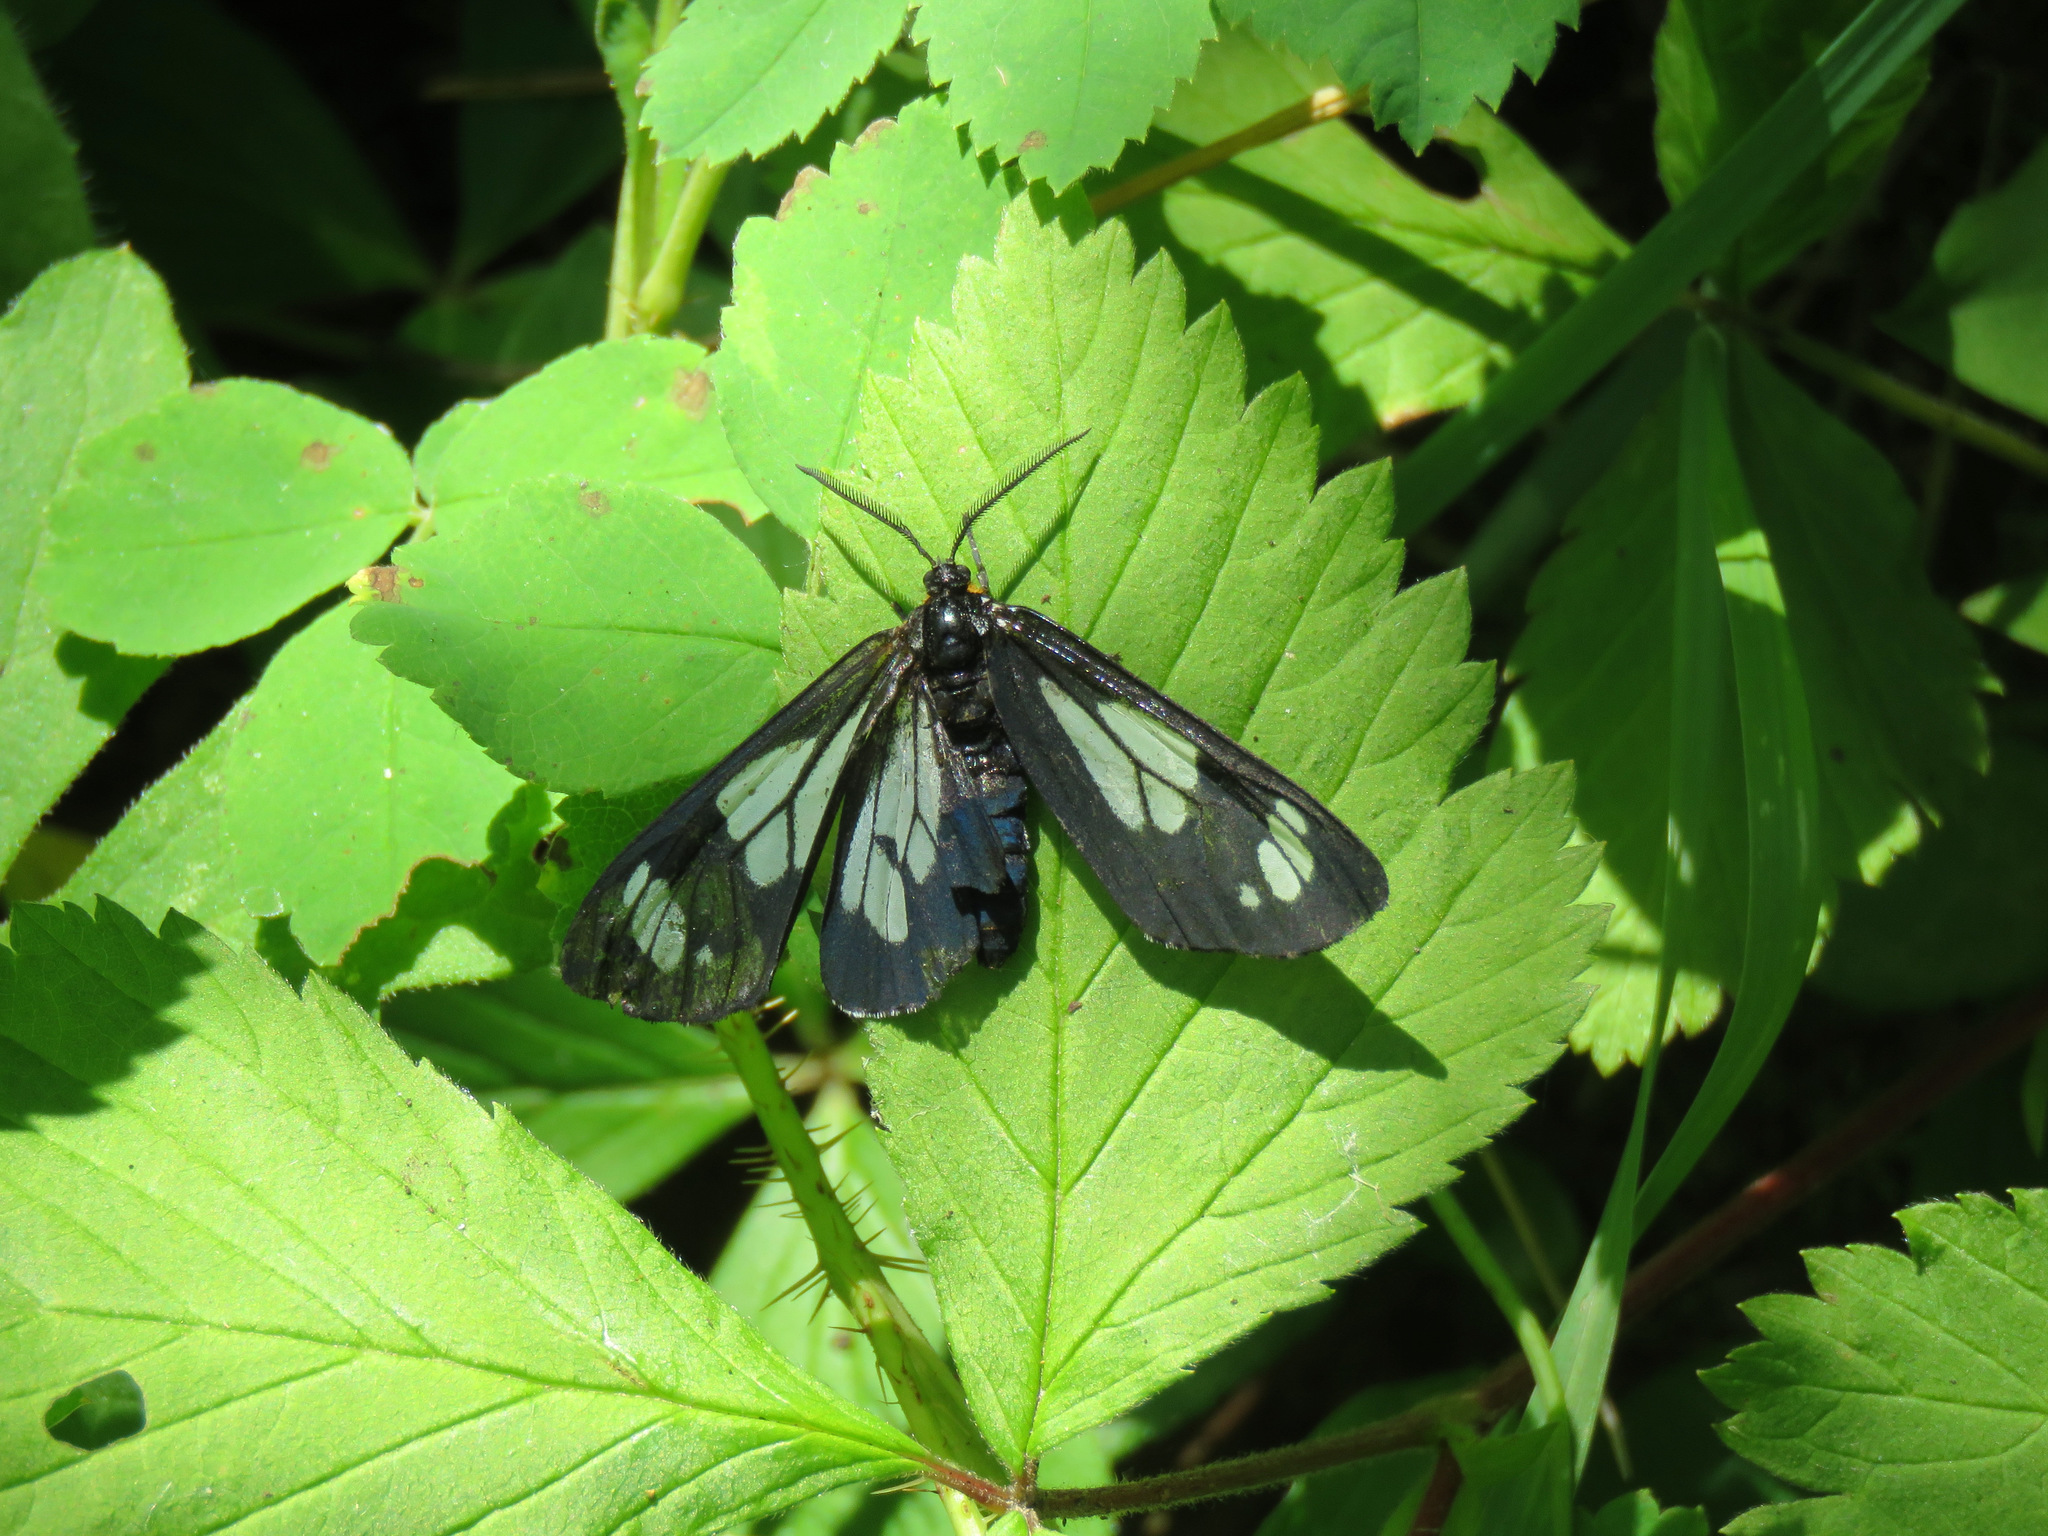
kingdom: Animalia
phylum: Arthropoda
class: Insecta
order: Lepidoptera
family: Erebidae
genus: Gnophaela
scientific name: Gnophaela vermiculata
